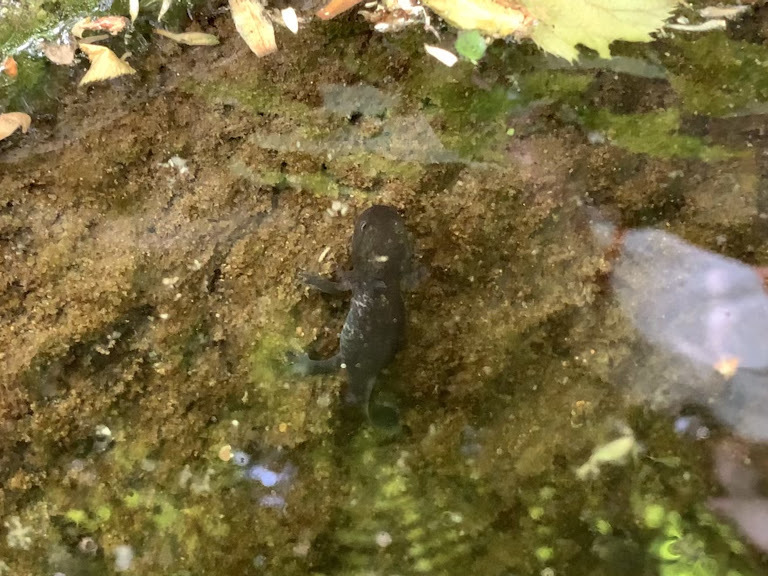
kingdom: Animalia
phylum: Chordata
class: Amphibia
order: Caudata
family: Salamandridae
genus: Salamandra
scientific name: Salamandra salamandra
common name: Fire salamander
